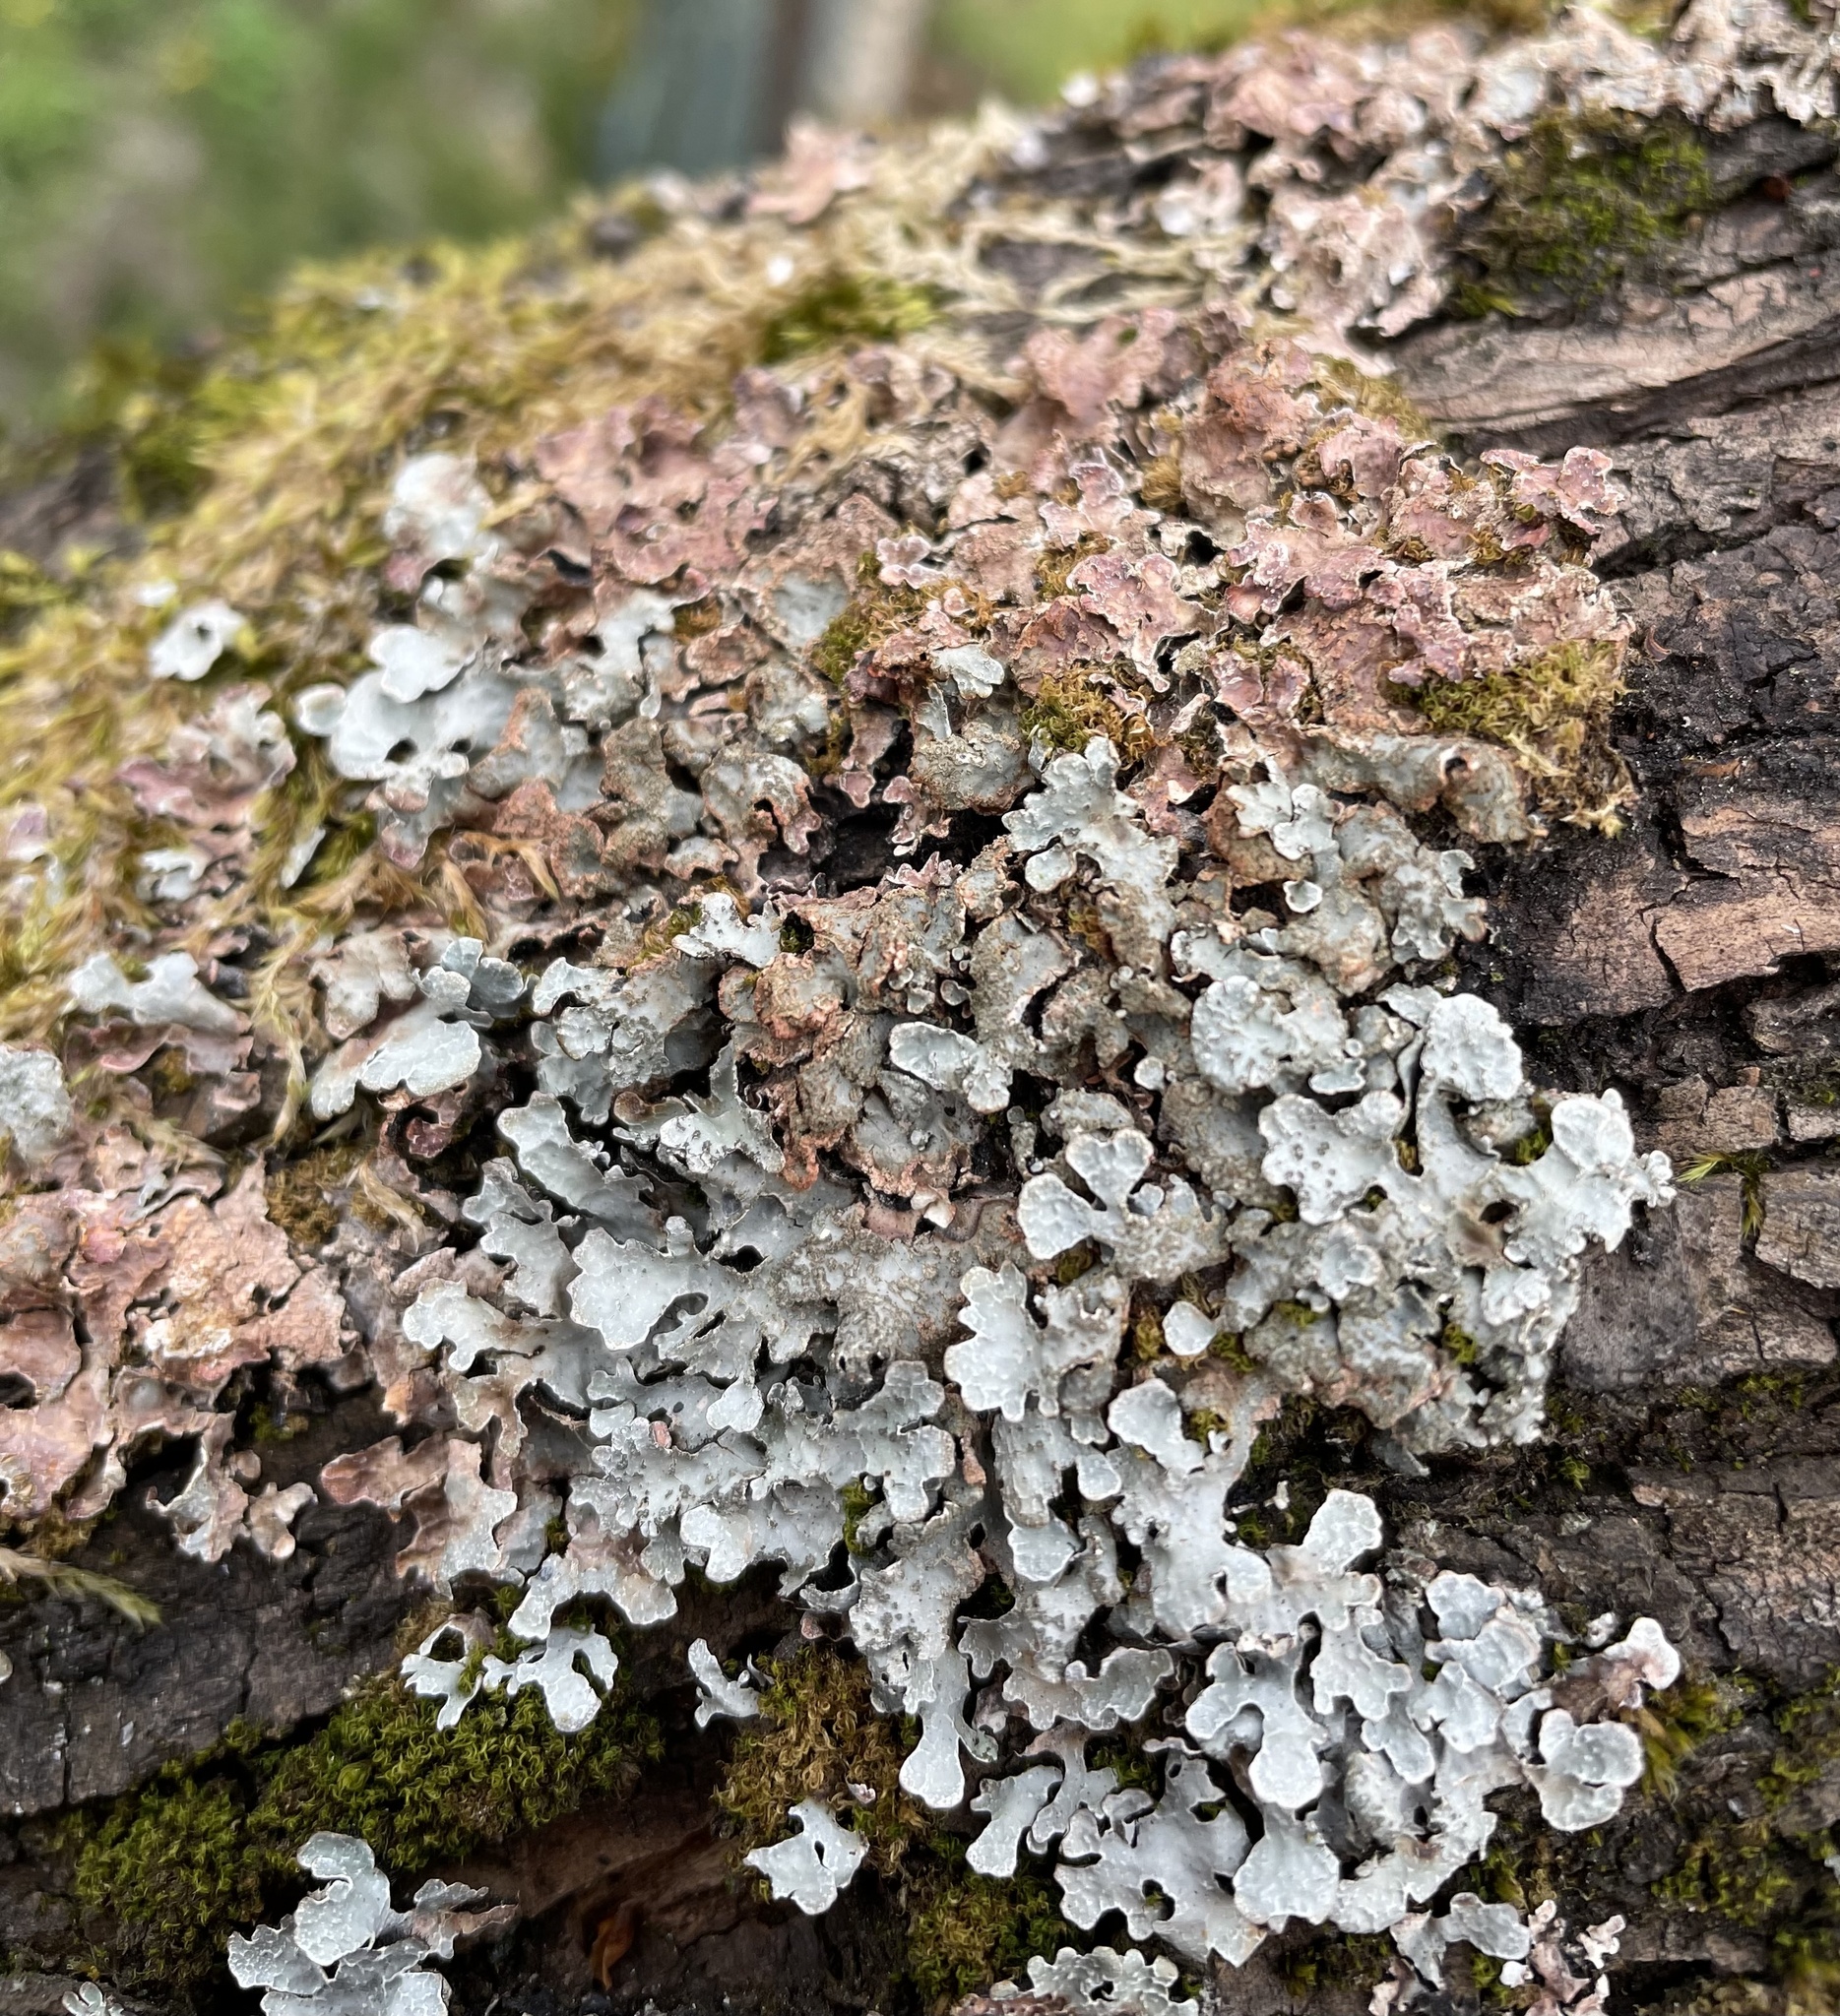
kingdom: Fungi
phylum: Ascomycota
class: Lecanoromycetes
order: Lecanorales
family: Parmeliaceae
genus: Parmelia
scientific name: Parmelia sulcata
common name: Netted shield lichen
